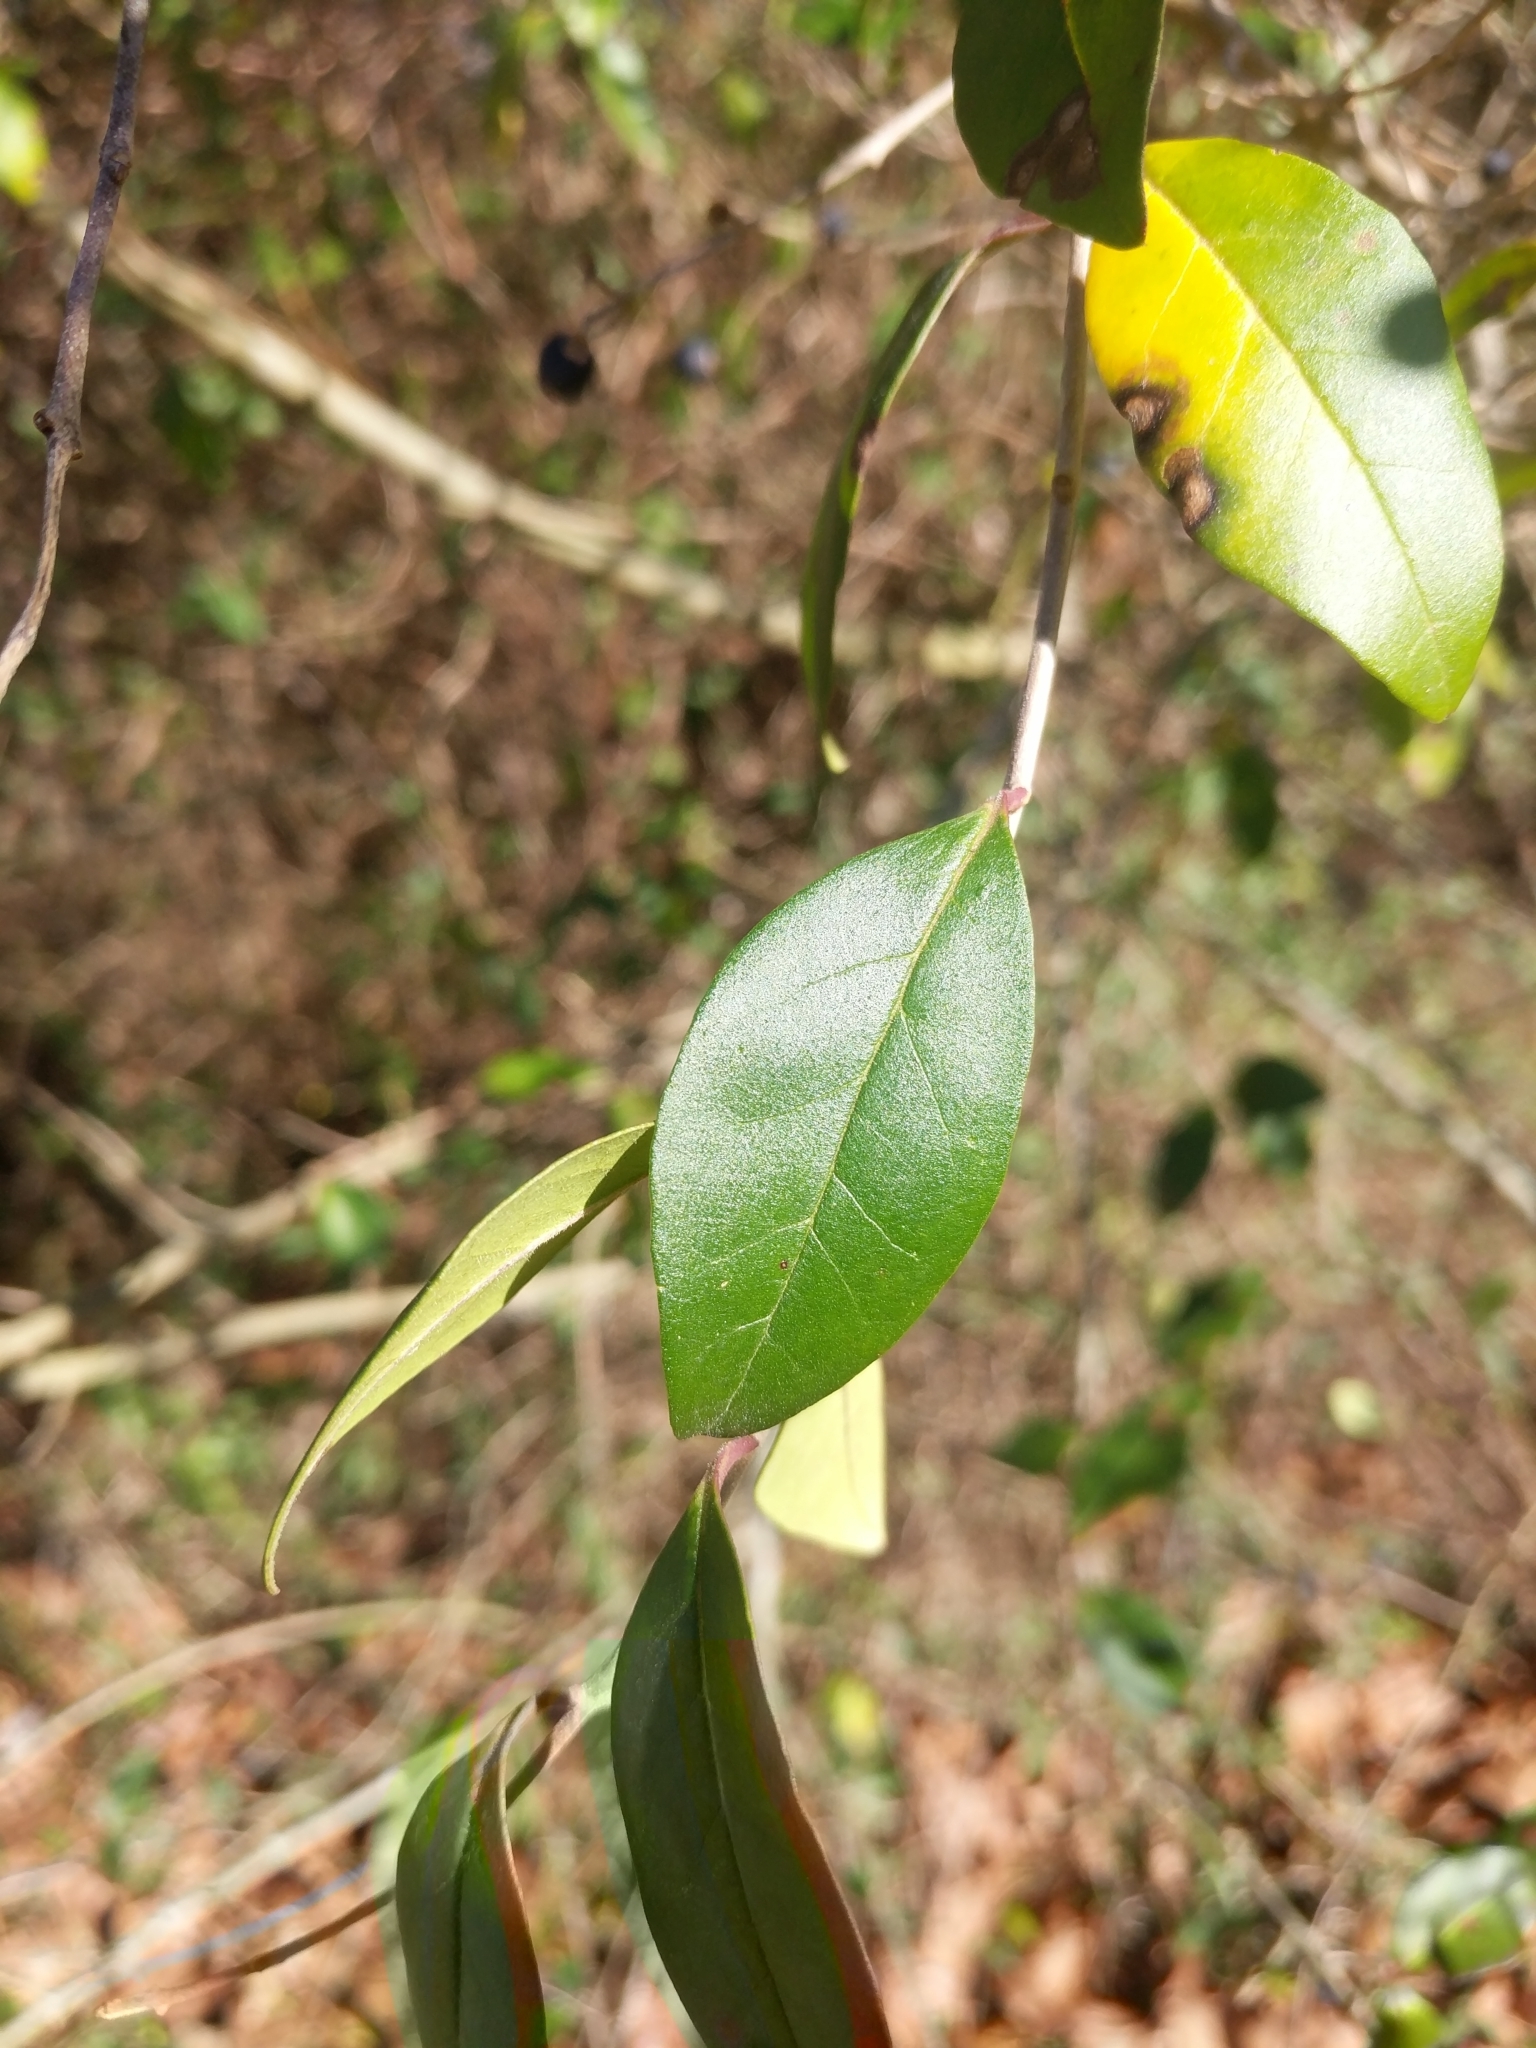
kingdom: Plantae
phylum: Tracheophyta
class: Magnoliopsida
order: Lamiales
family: Oleaceae
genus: Ligustrum
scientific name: Ligustrum sinense
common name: Chinese privet
